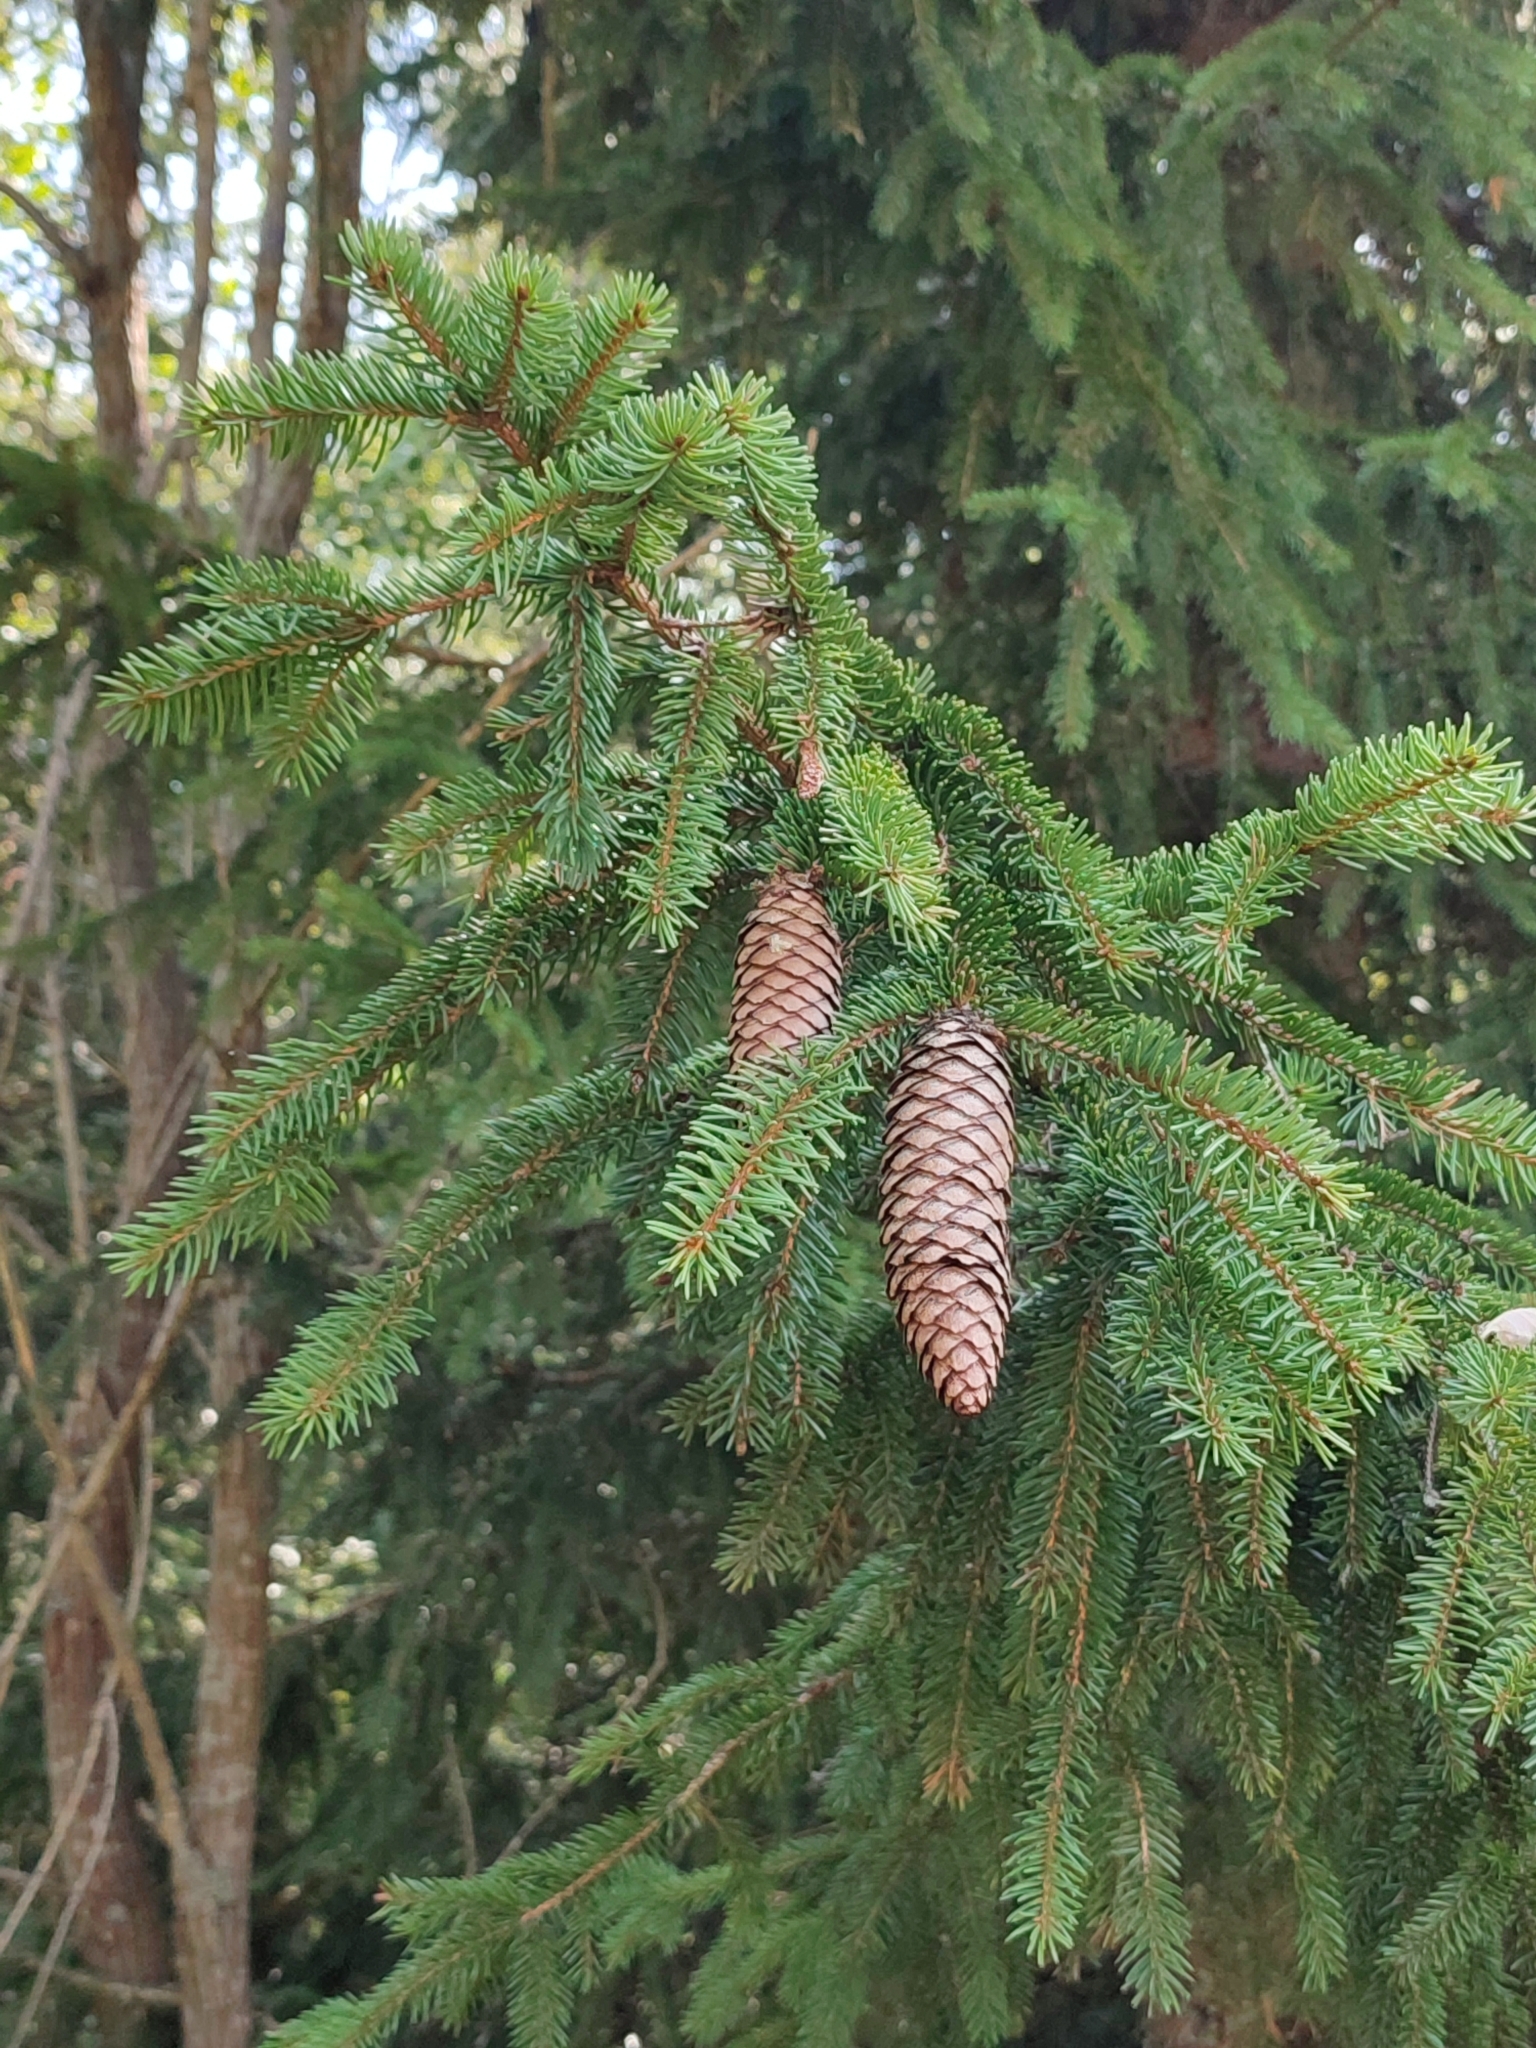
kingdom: Plantae
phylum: Tracheophyta
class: Pinopsida
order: Pinales
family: Pinaceae
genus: Picea
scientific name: Picea abies
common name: Norway spruce
